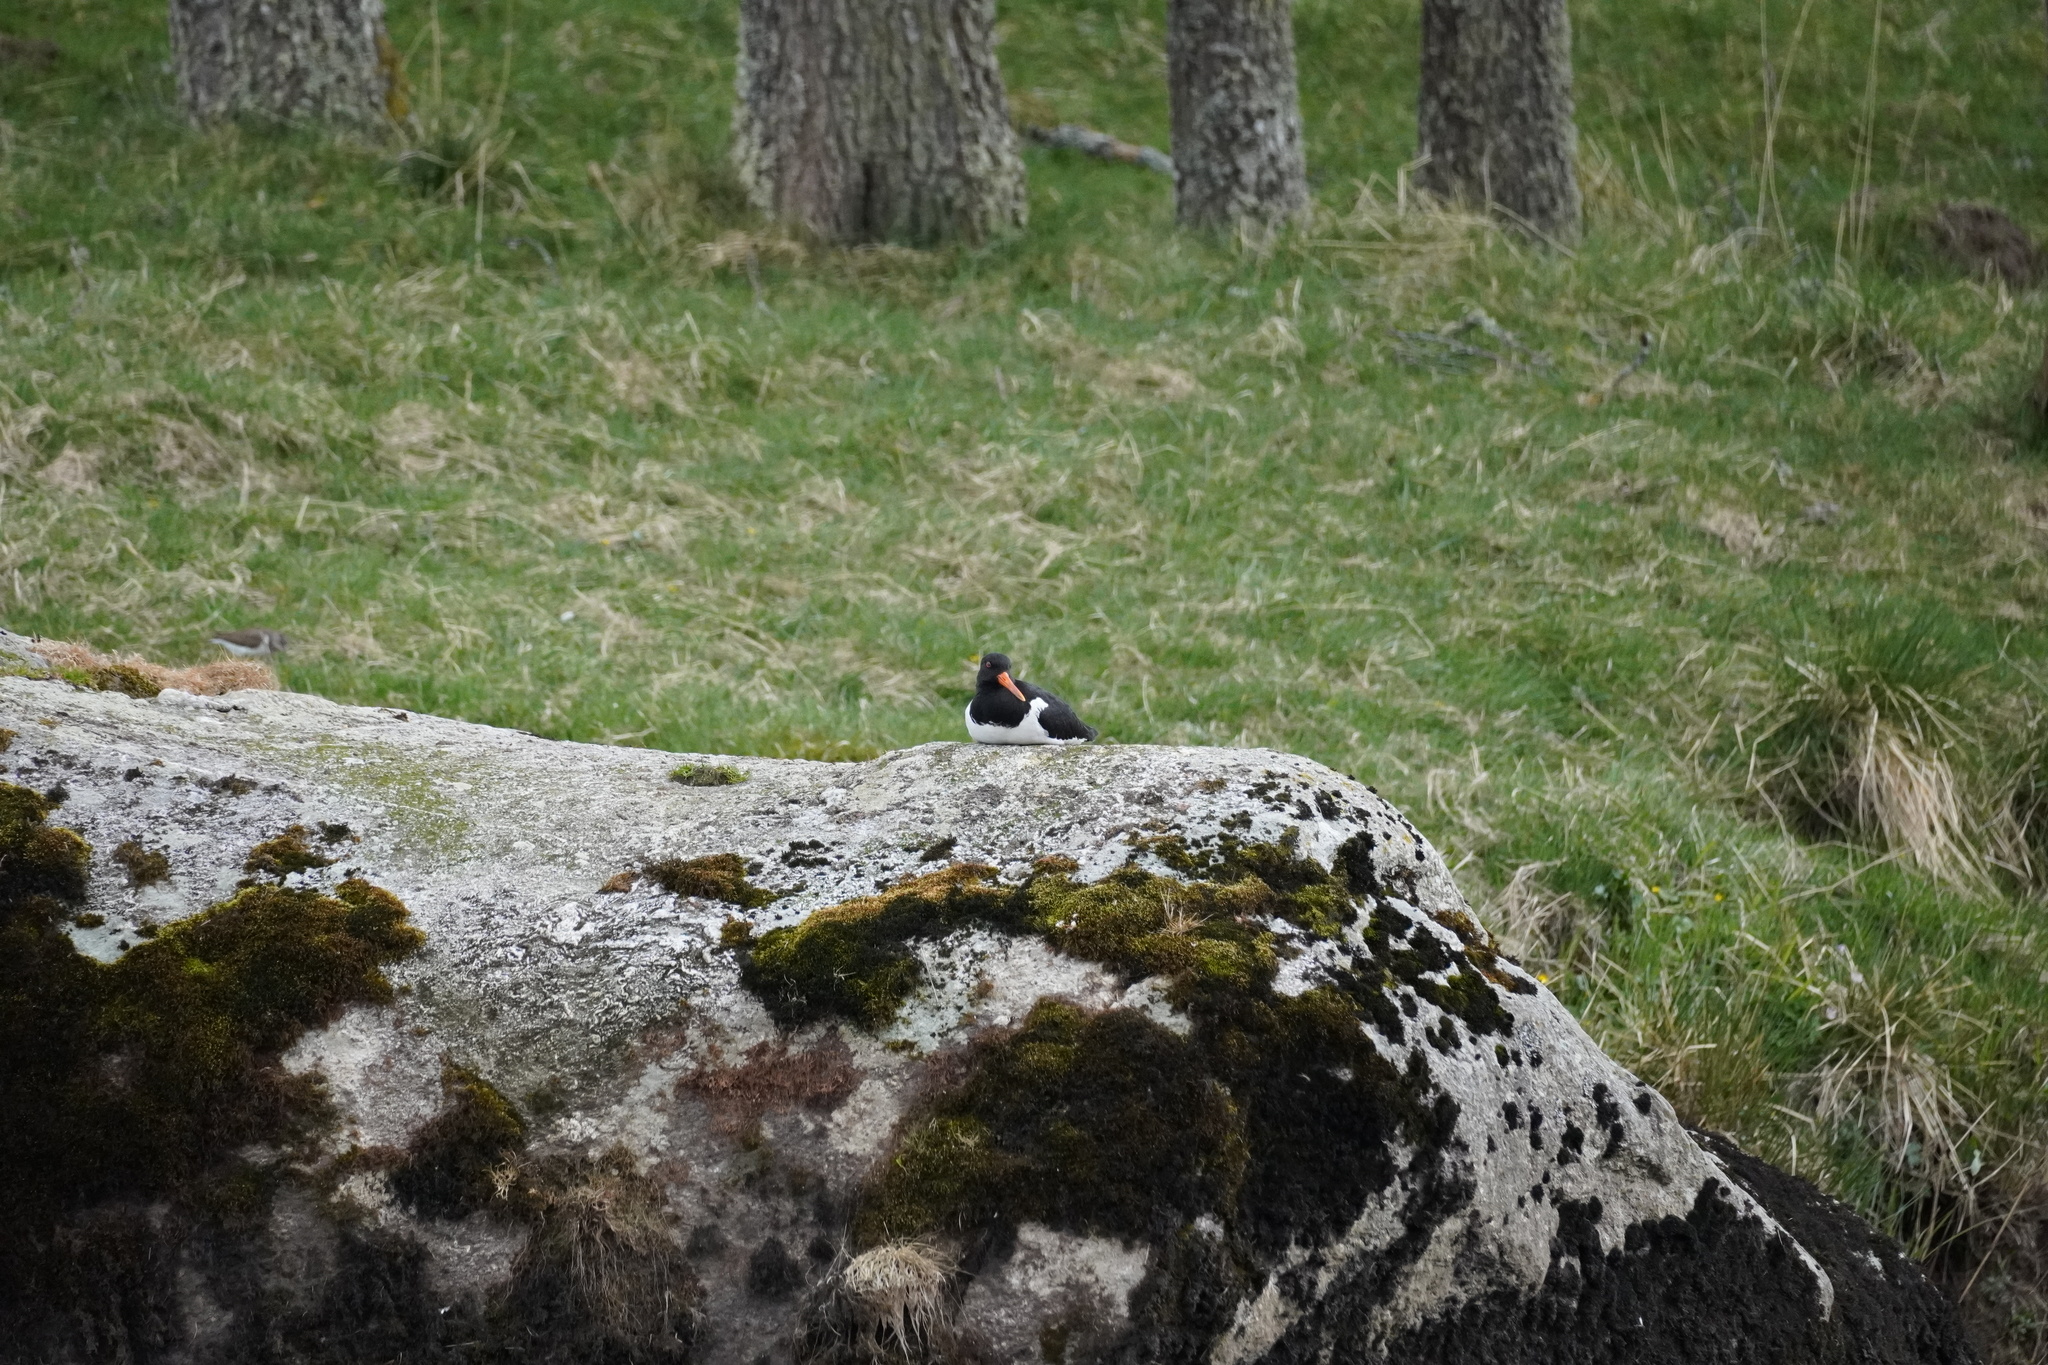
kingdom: Animalia
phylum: Chordata
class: Aves
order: Charadriiformes
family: Haematopodidae
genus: Haematopus
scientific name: Haematopus ostralegus
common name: Eurasian oystercatcher
